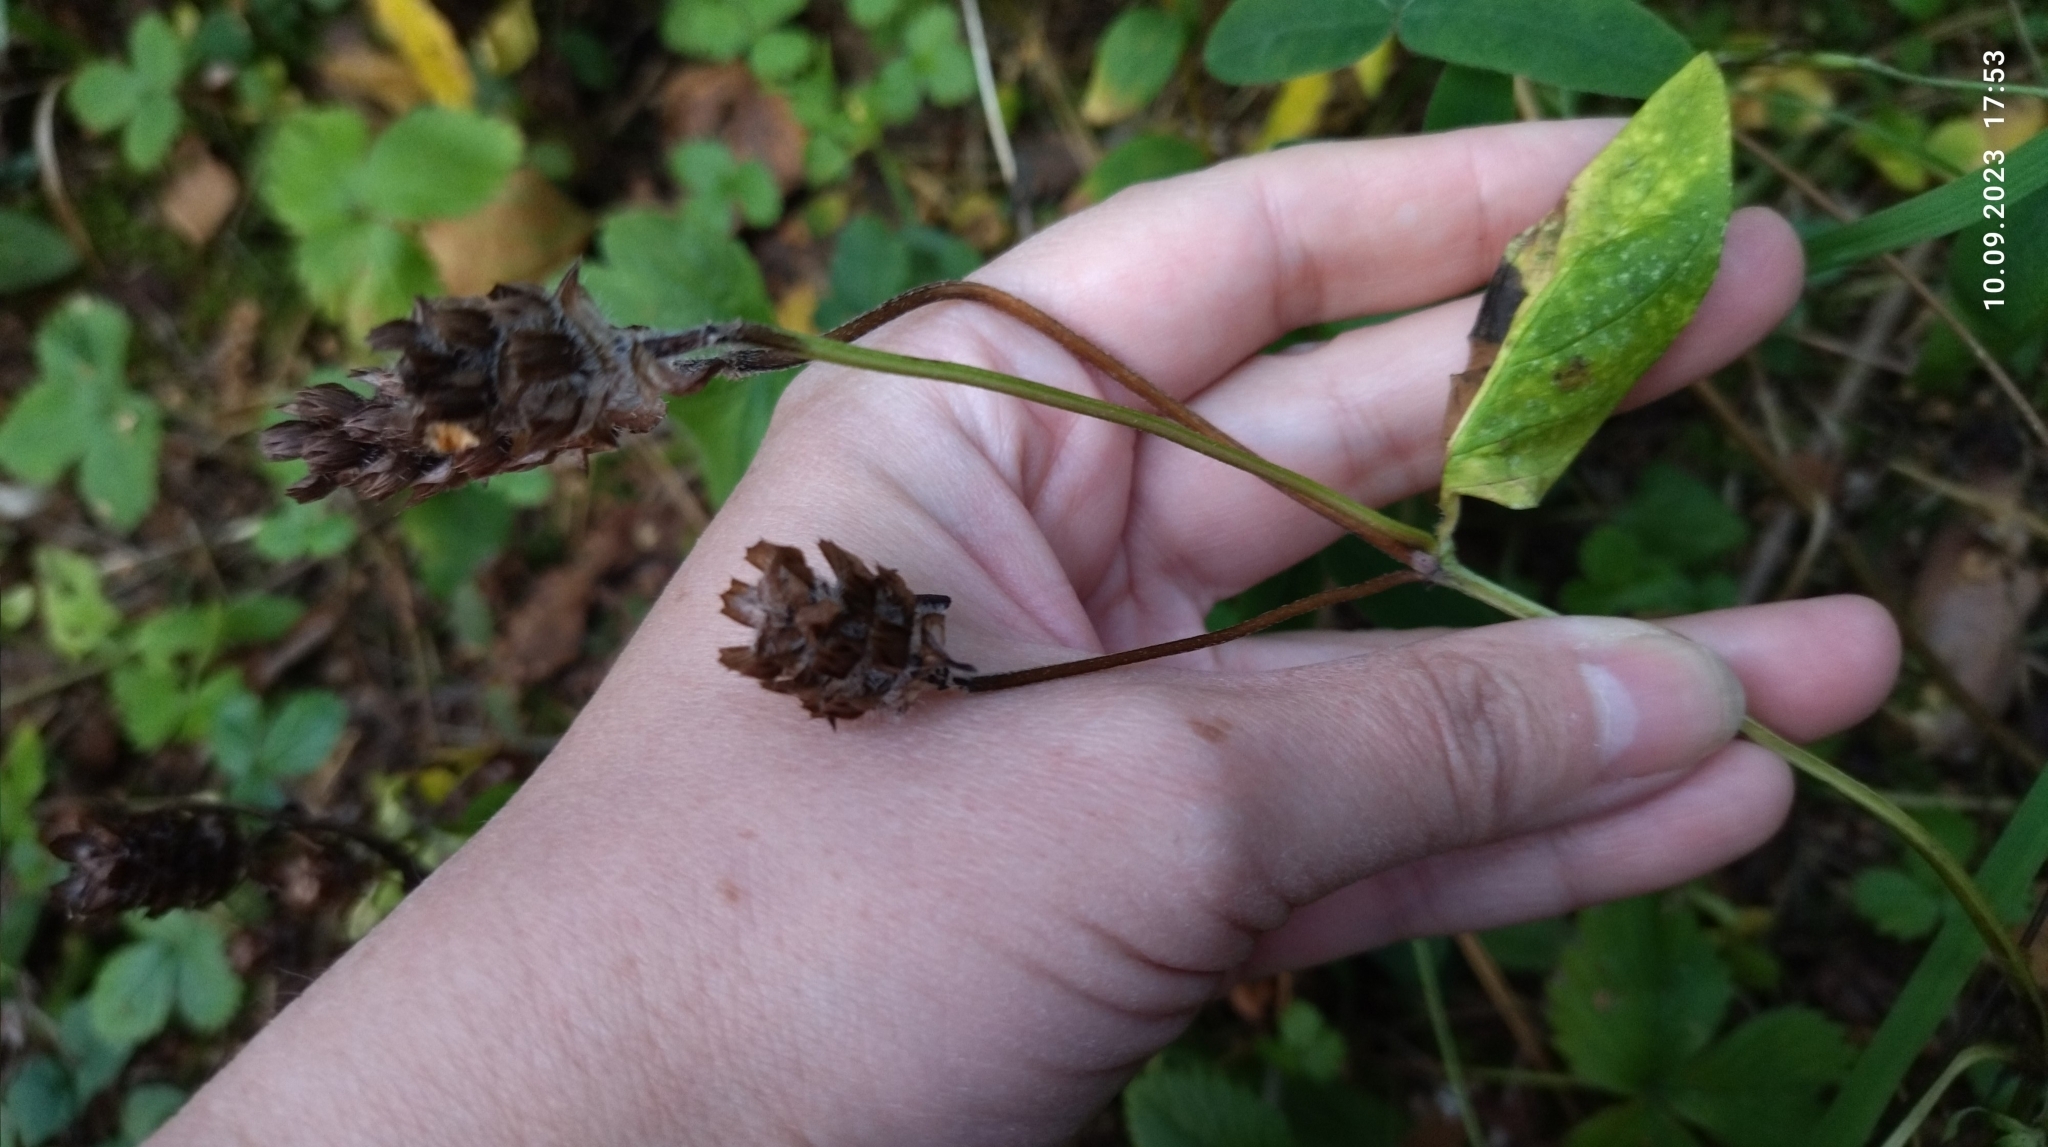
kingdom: Plantae
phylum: Tracheophyta
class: Magnoliopsida
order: Lamiales
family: Lamiaceae
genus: Prunella
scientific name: Prunella vulgaris
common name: Heal-all
